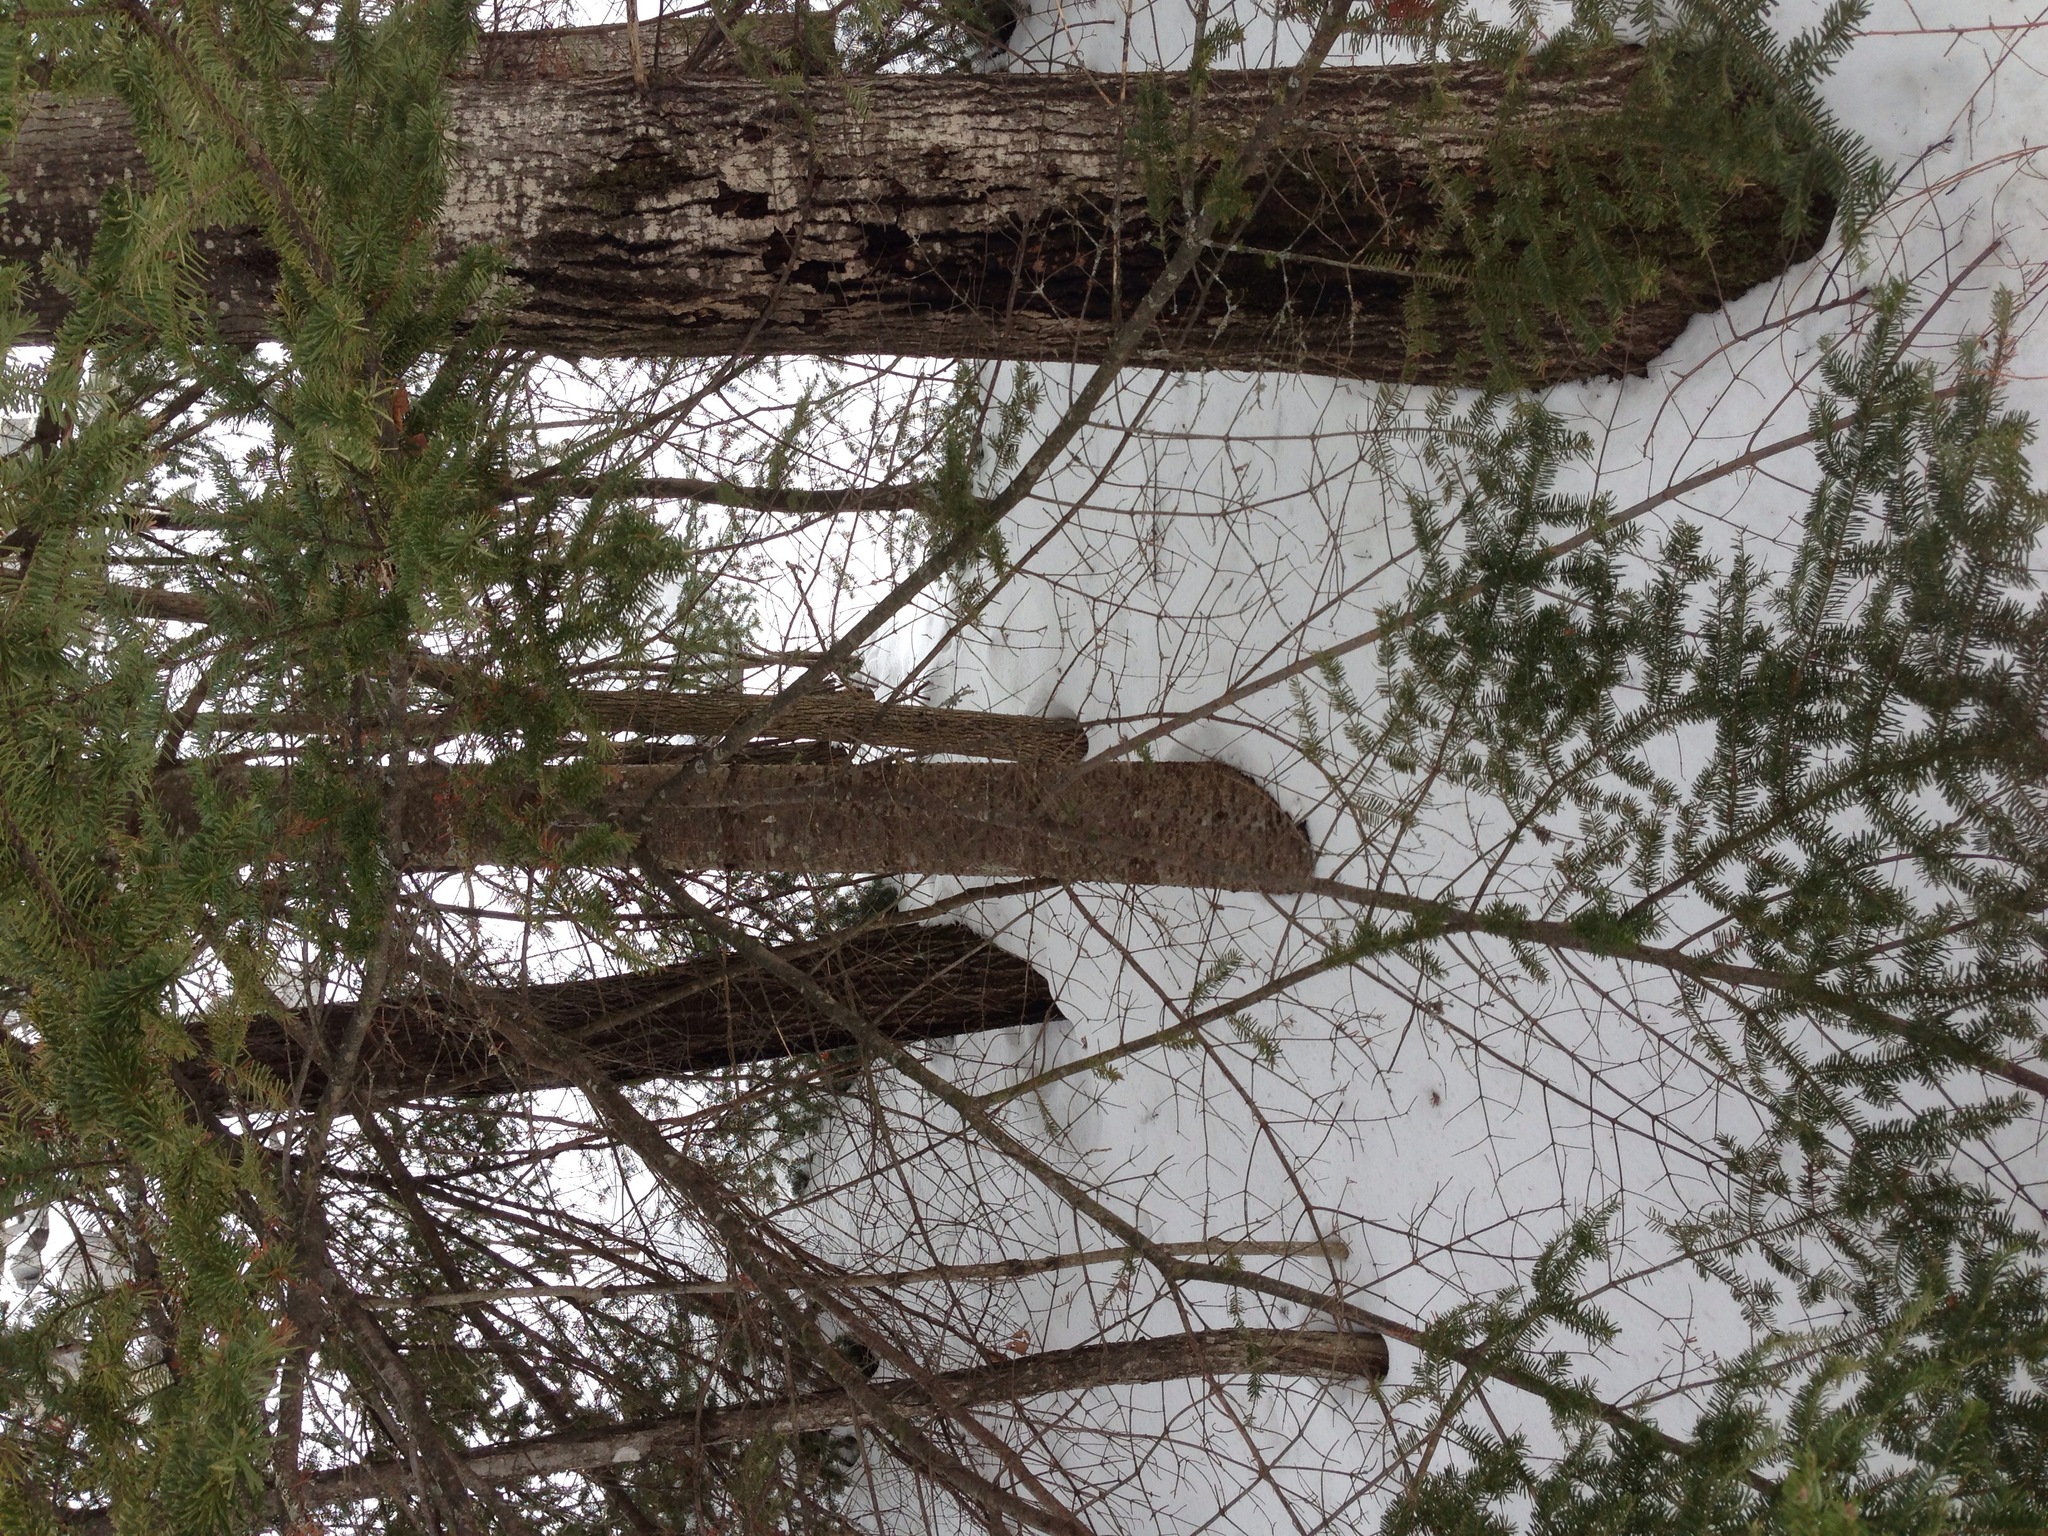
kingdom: Plantae
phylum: Tracheophyta
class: Pinopsida
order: Pinales
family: Pinaceae
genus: Abies
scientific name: Abies balsamea
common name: Balsam fir
